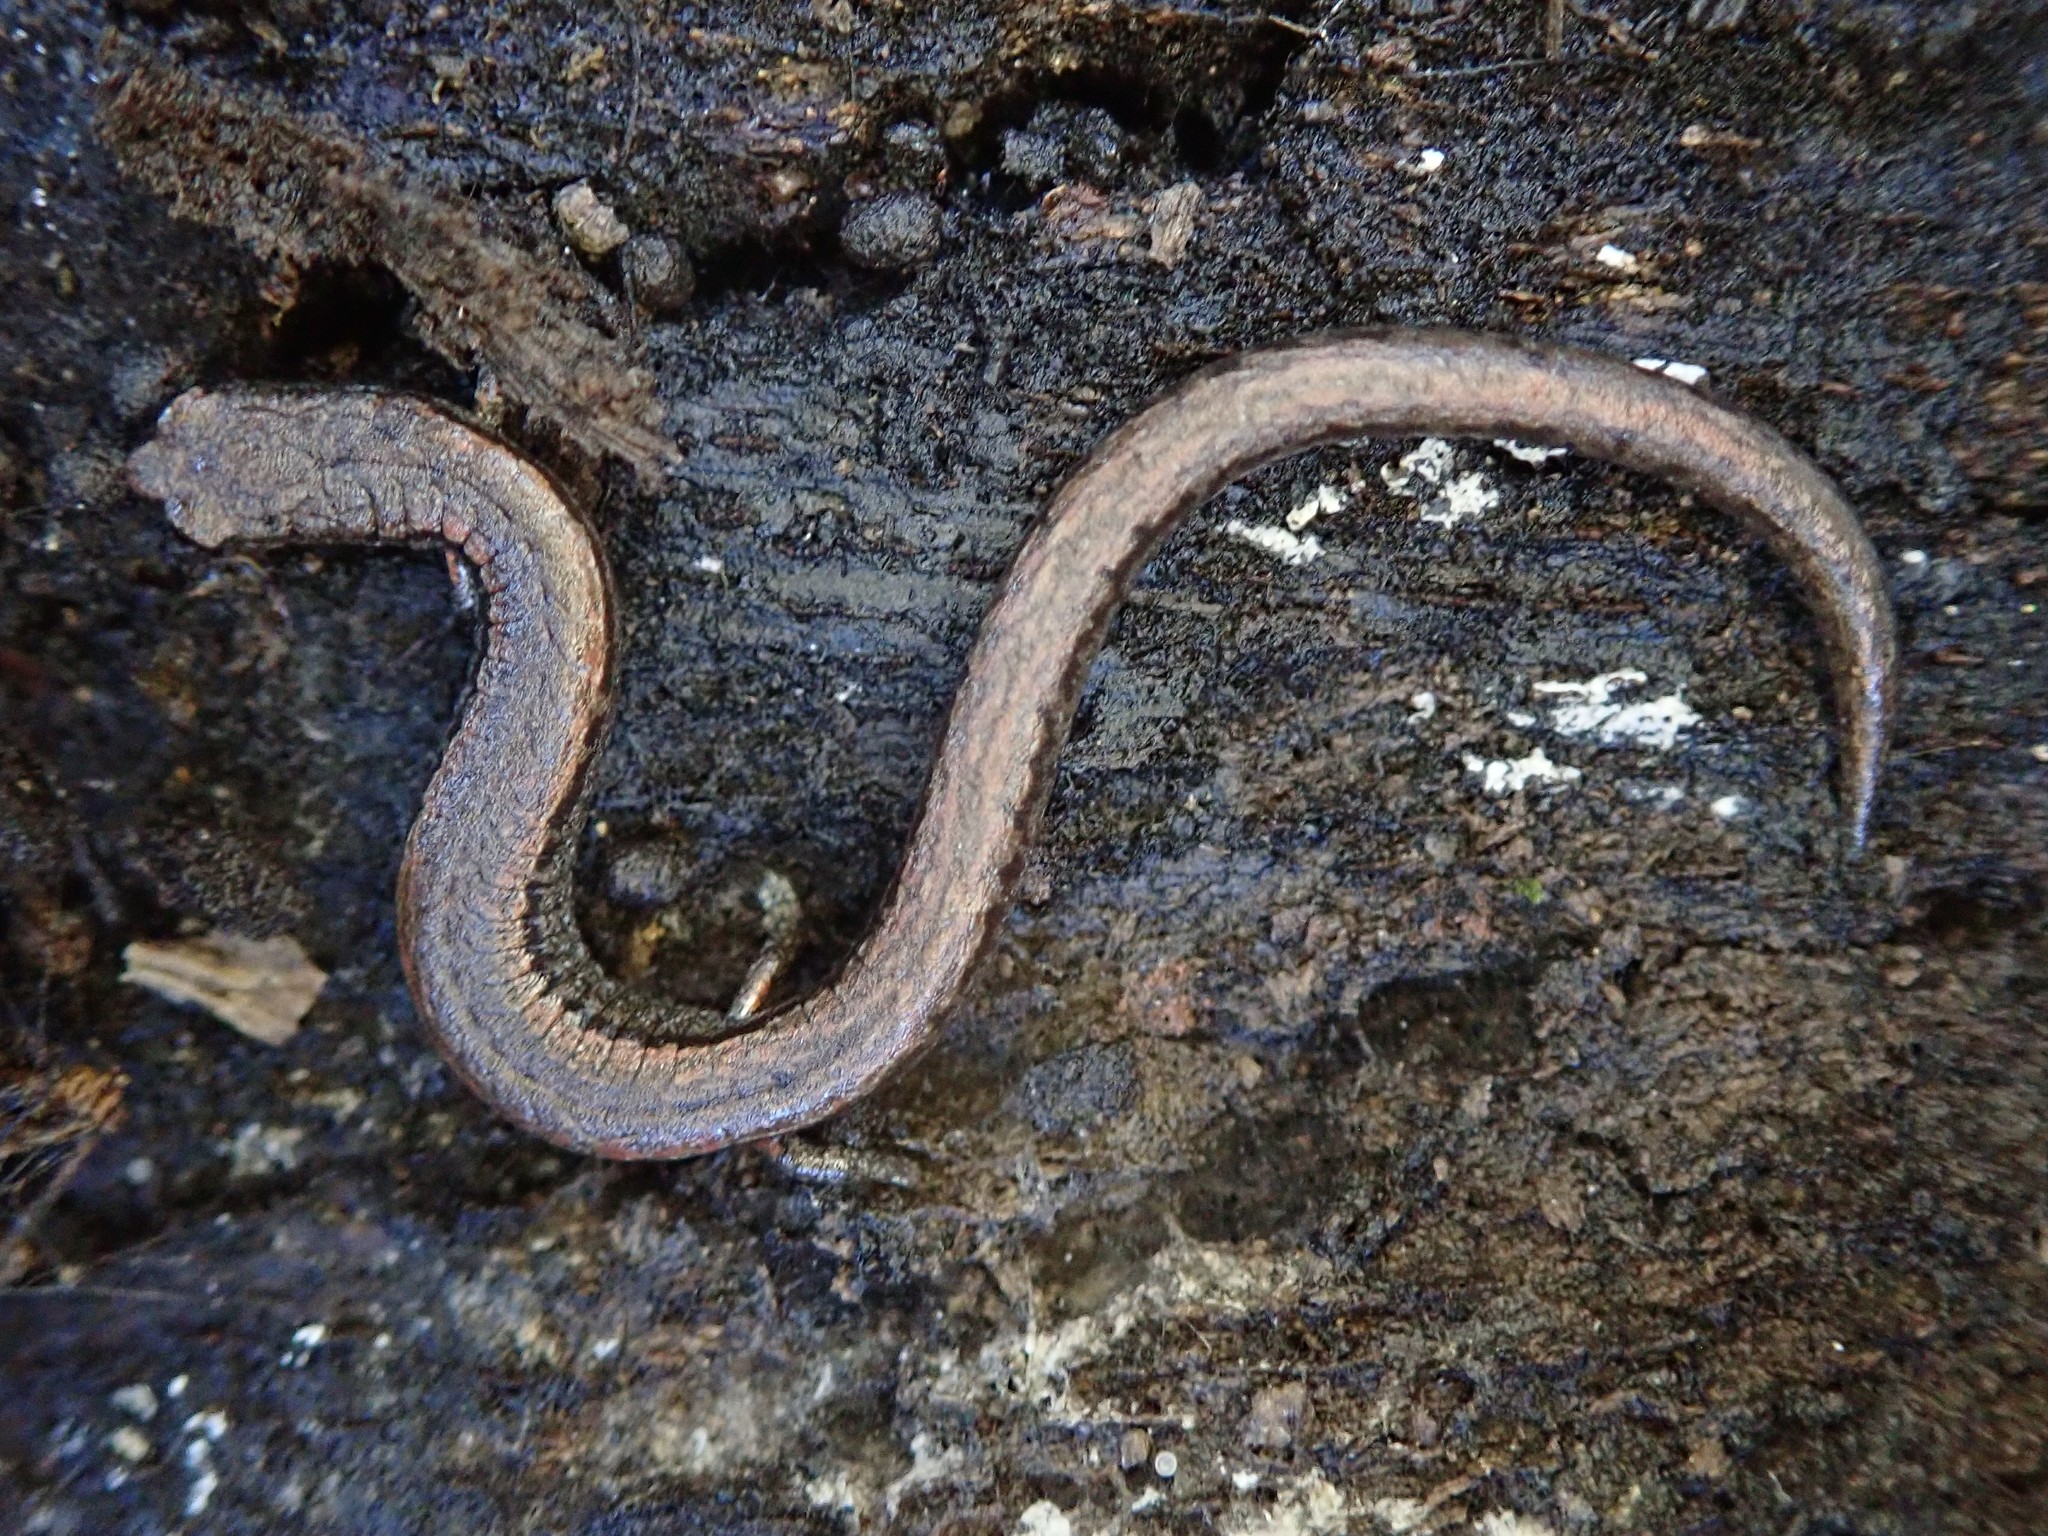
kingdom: Animalia
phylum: Chordata
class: Amphibia
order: Caudata
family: Plethodontidae
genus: Batrachoseps
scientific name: Batrachoseps attenuatus
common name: California slender salamander
